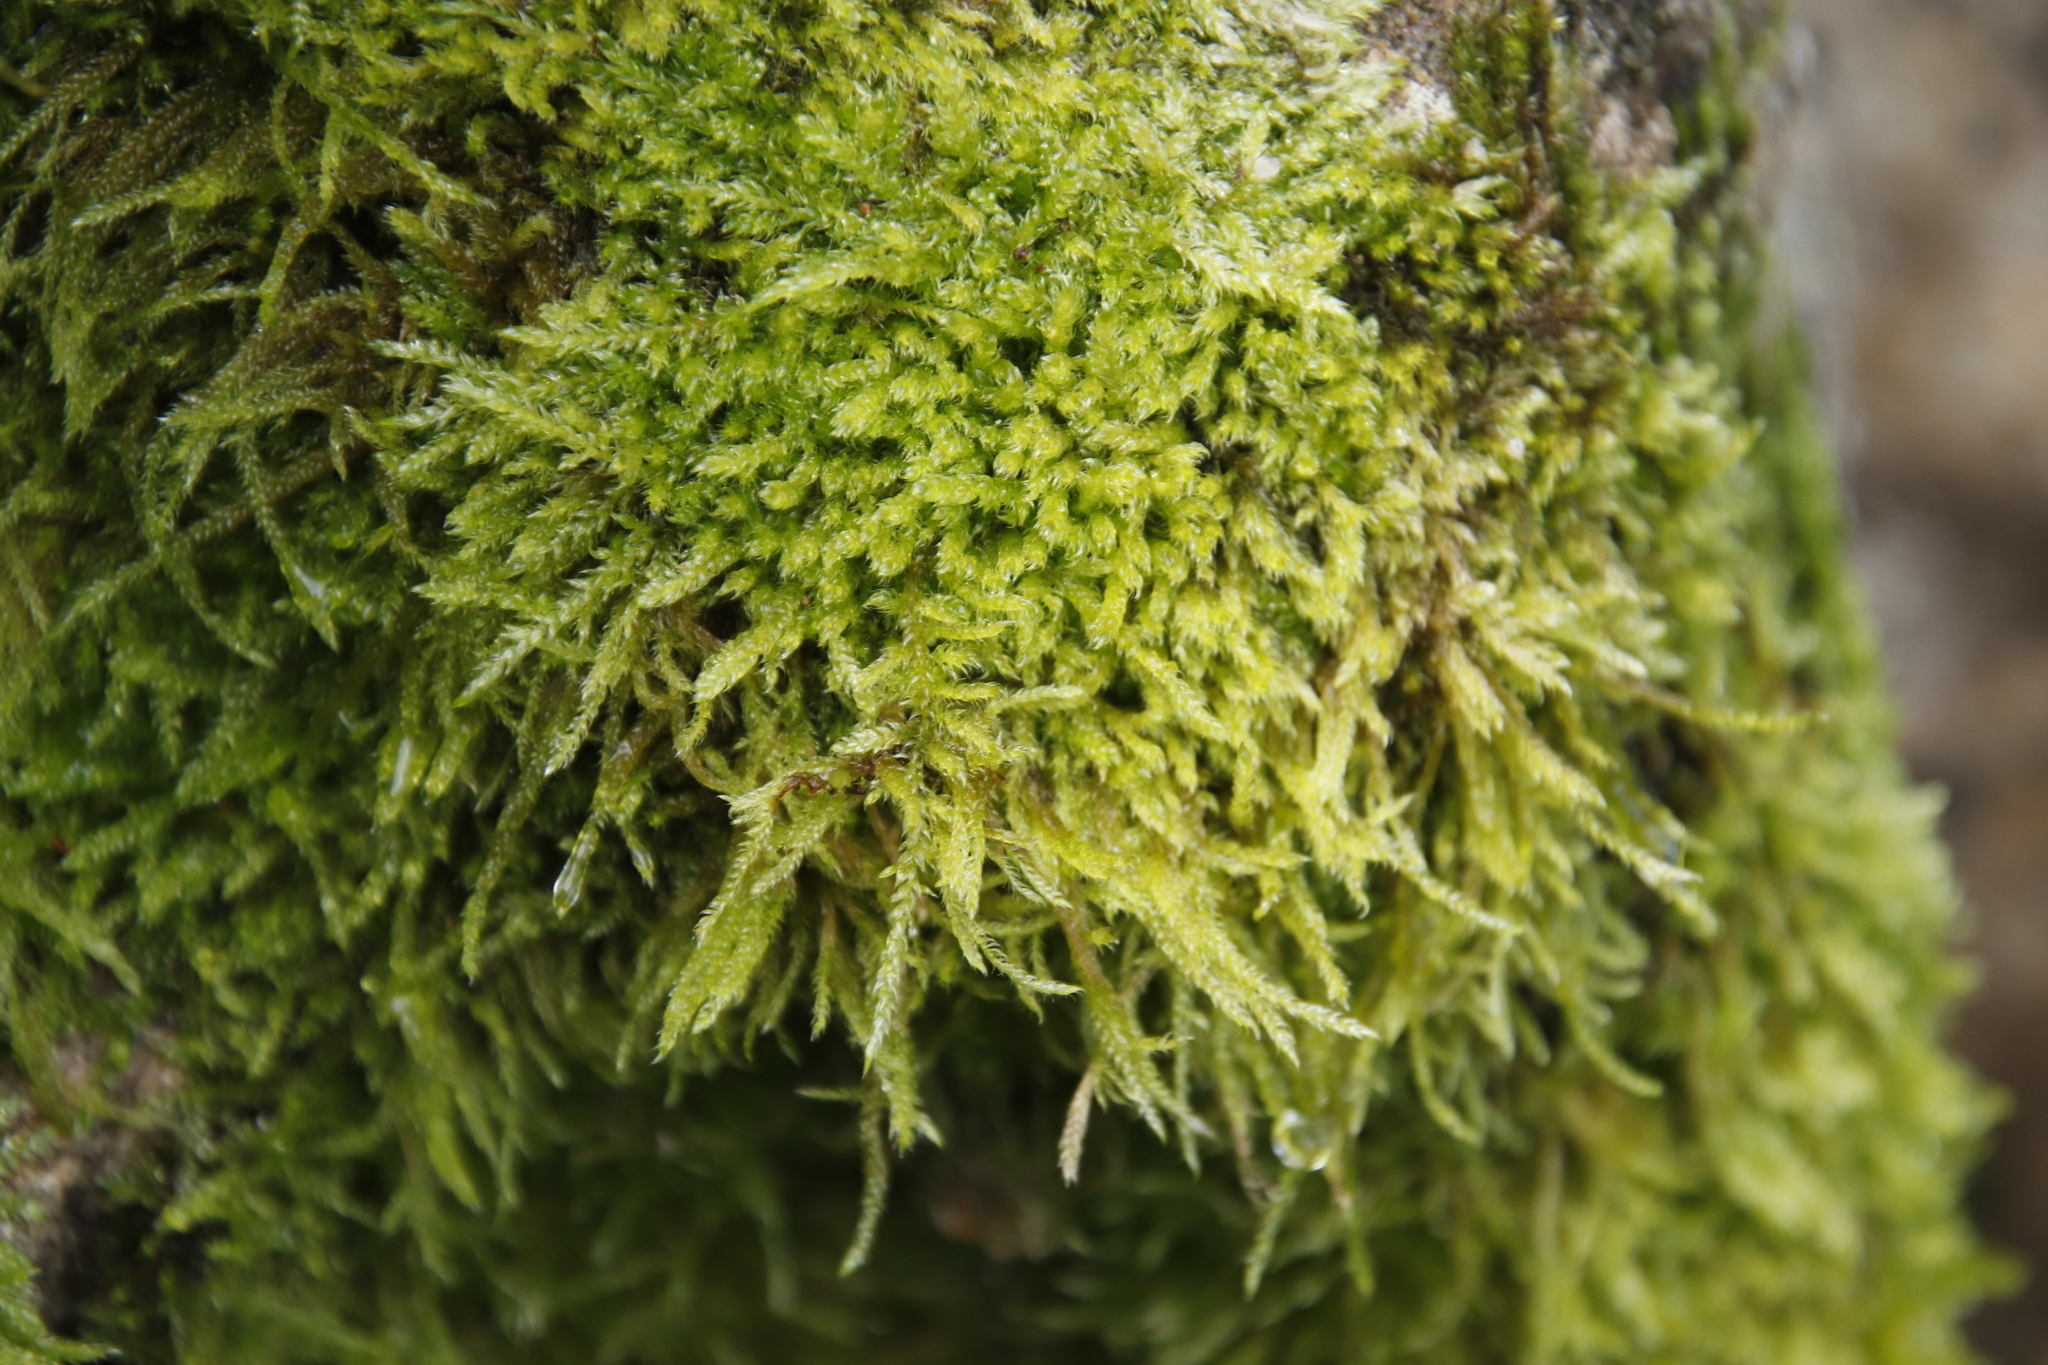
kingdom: Plantae
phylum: Bryophyta
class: Bryopsida
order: Hypnales
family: Hypnaceae
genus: Hypnum
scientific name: Hypnum cupressiforme
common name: Cypress-leaved plait-moss
